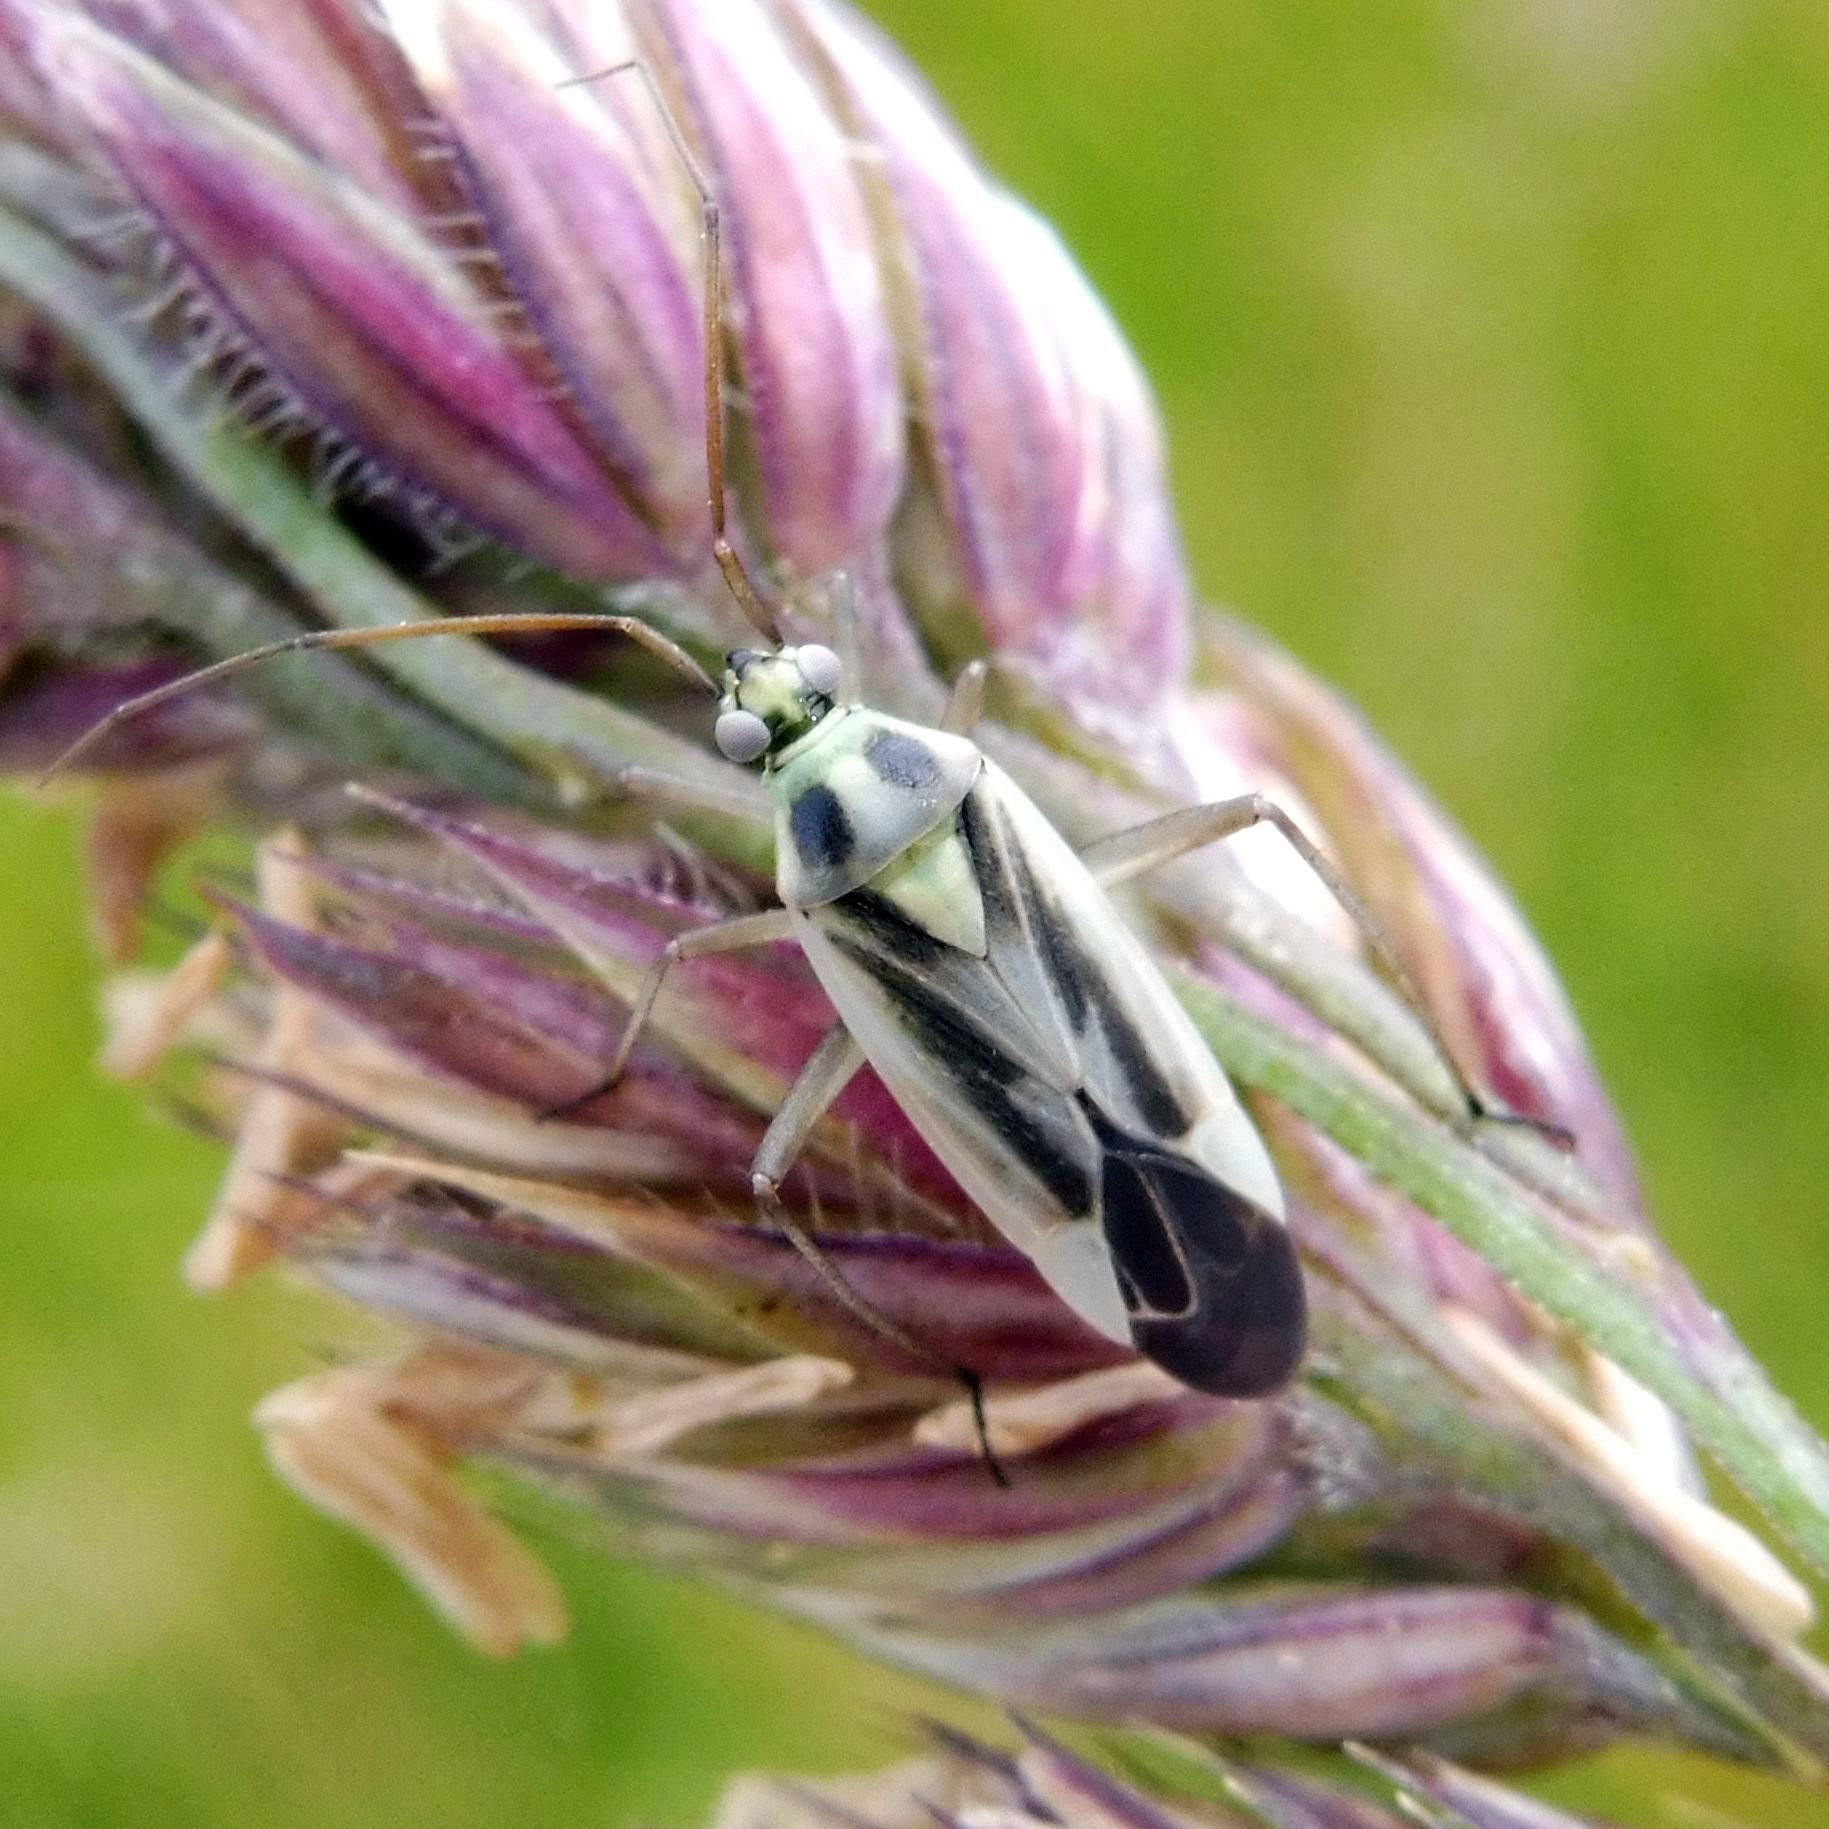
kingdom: Animalia
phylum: Arthropoda
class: Insecta
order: Hemiptera
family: Miridae
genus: Stenotus
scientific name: Stenotus binotatus
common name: Plant bug
